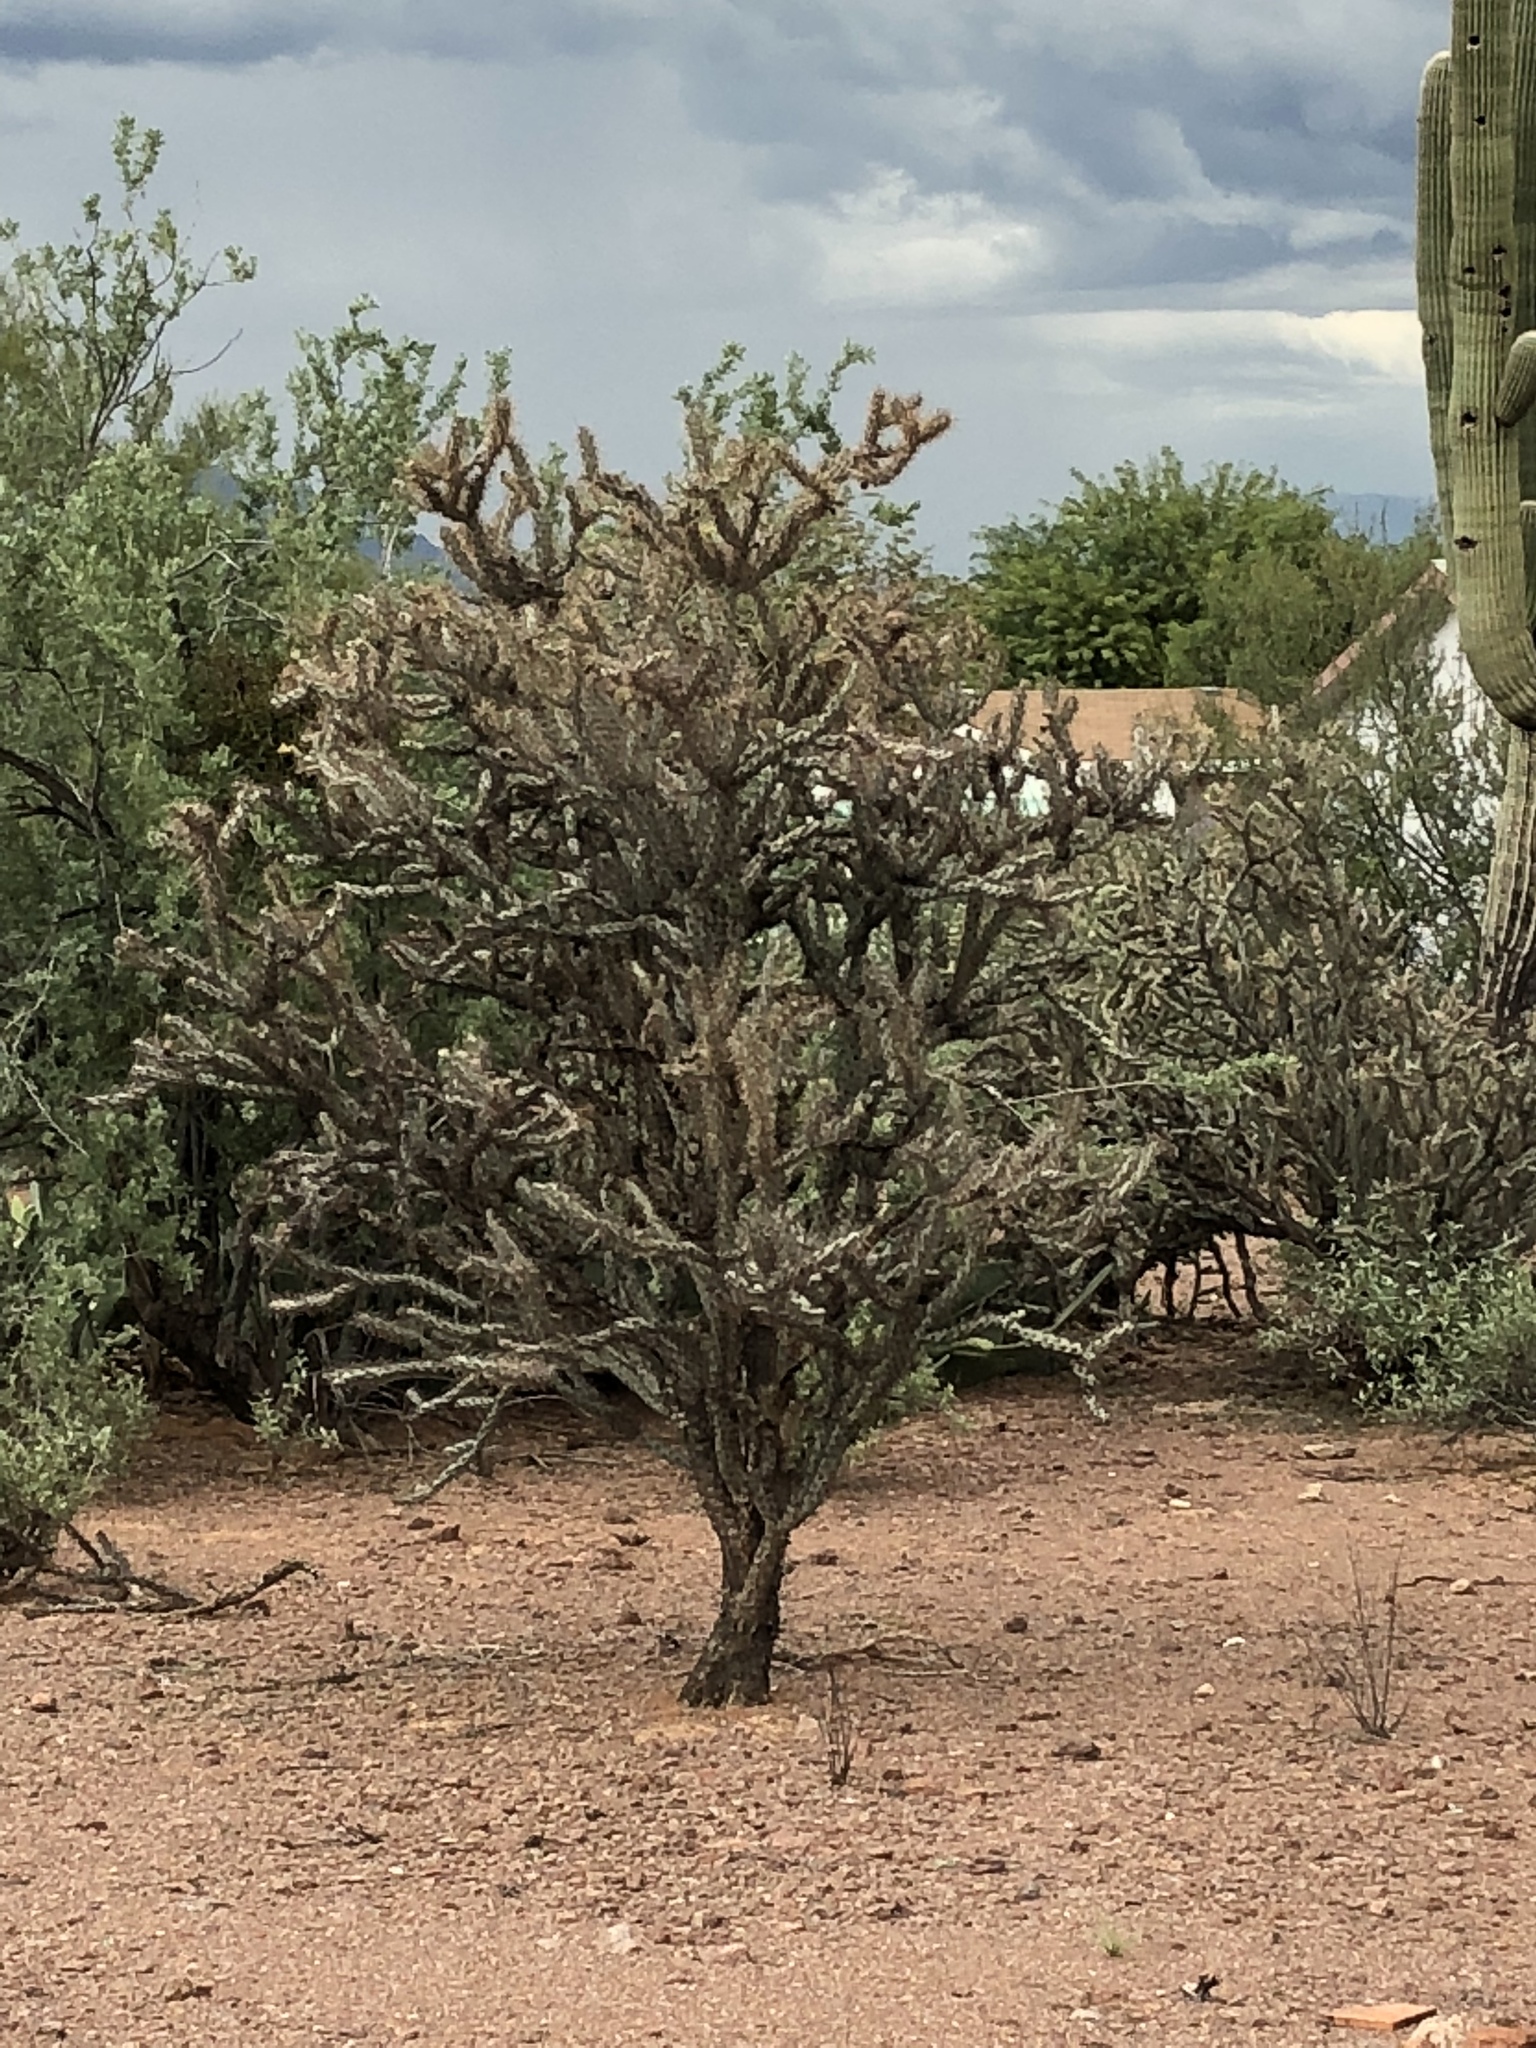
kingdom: Plantae
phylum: Tracheophyta
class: Magnoliopsida
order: Caryophyllales
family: Cactaceae
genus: Cylindropuntia
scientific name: Cylindropuntia acanthocarpa
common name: Buckhorn cholla
